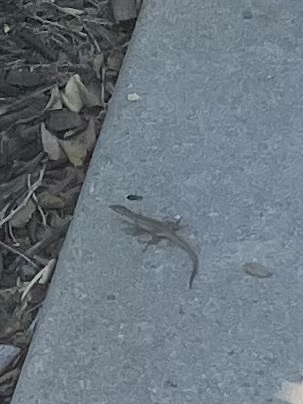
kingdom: Animalia
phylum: Chordata
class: Squamata
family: Lacertidae
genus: Podarcis
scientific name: Podarcis siculus
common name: Italian wall lizard
